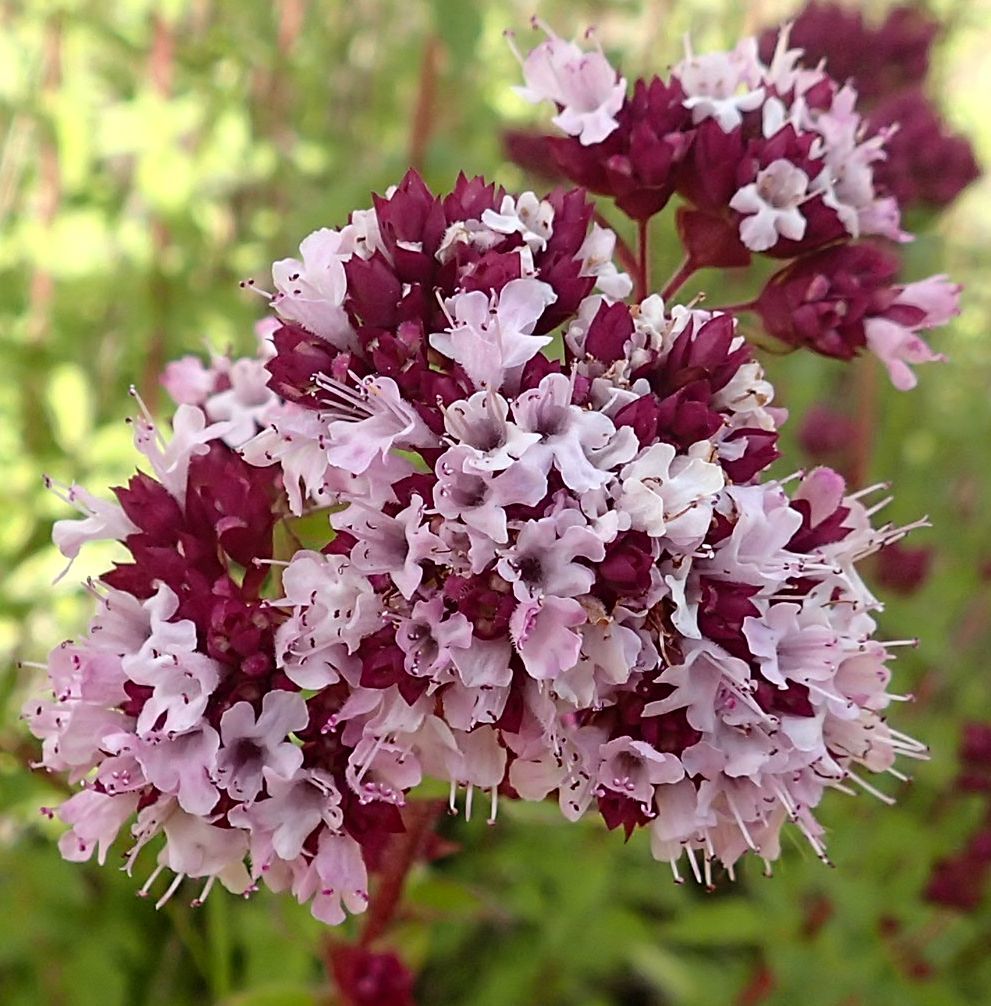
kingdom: Plantae
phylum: Tracheophyta
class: Magnoliopsida
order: Lamiales
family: Lamiaceae
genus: Origanum
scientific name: Origanum vulgare
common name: Wild marjoram
